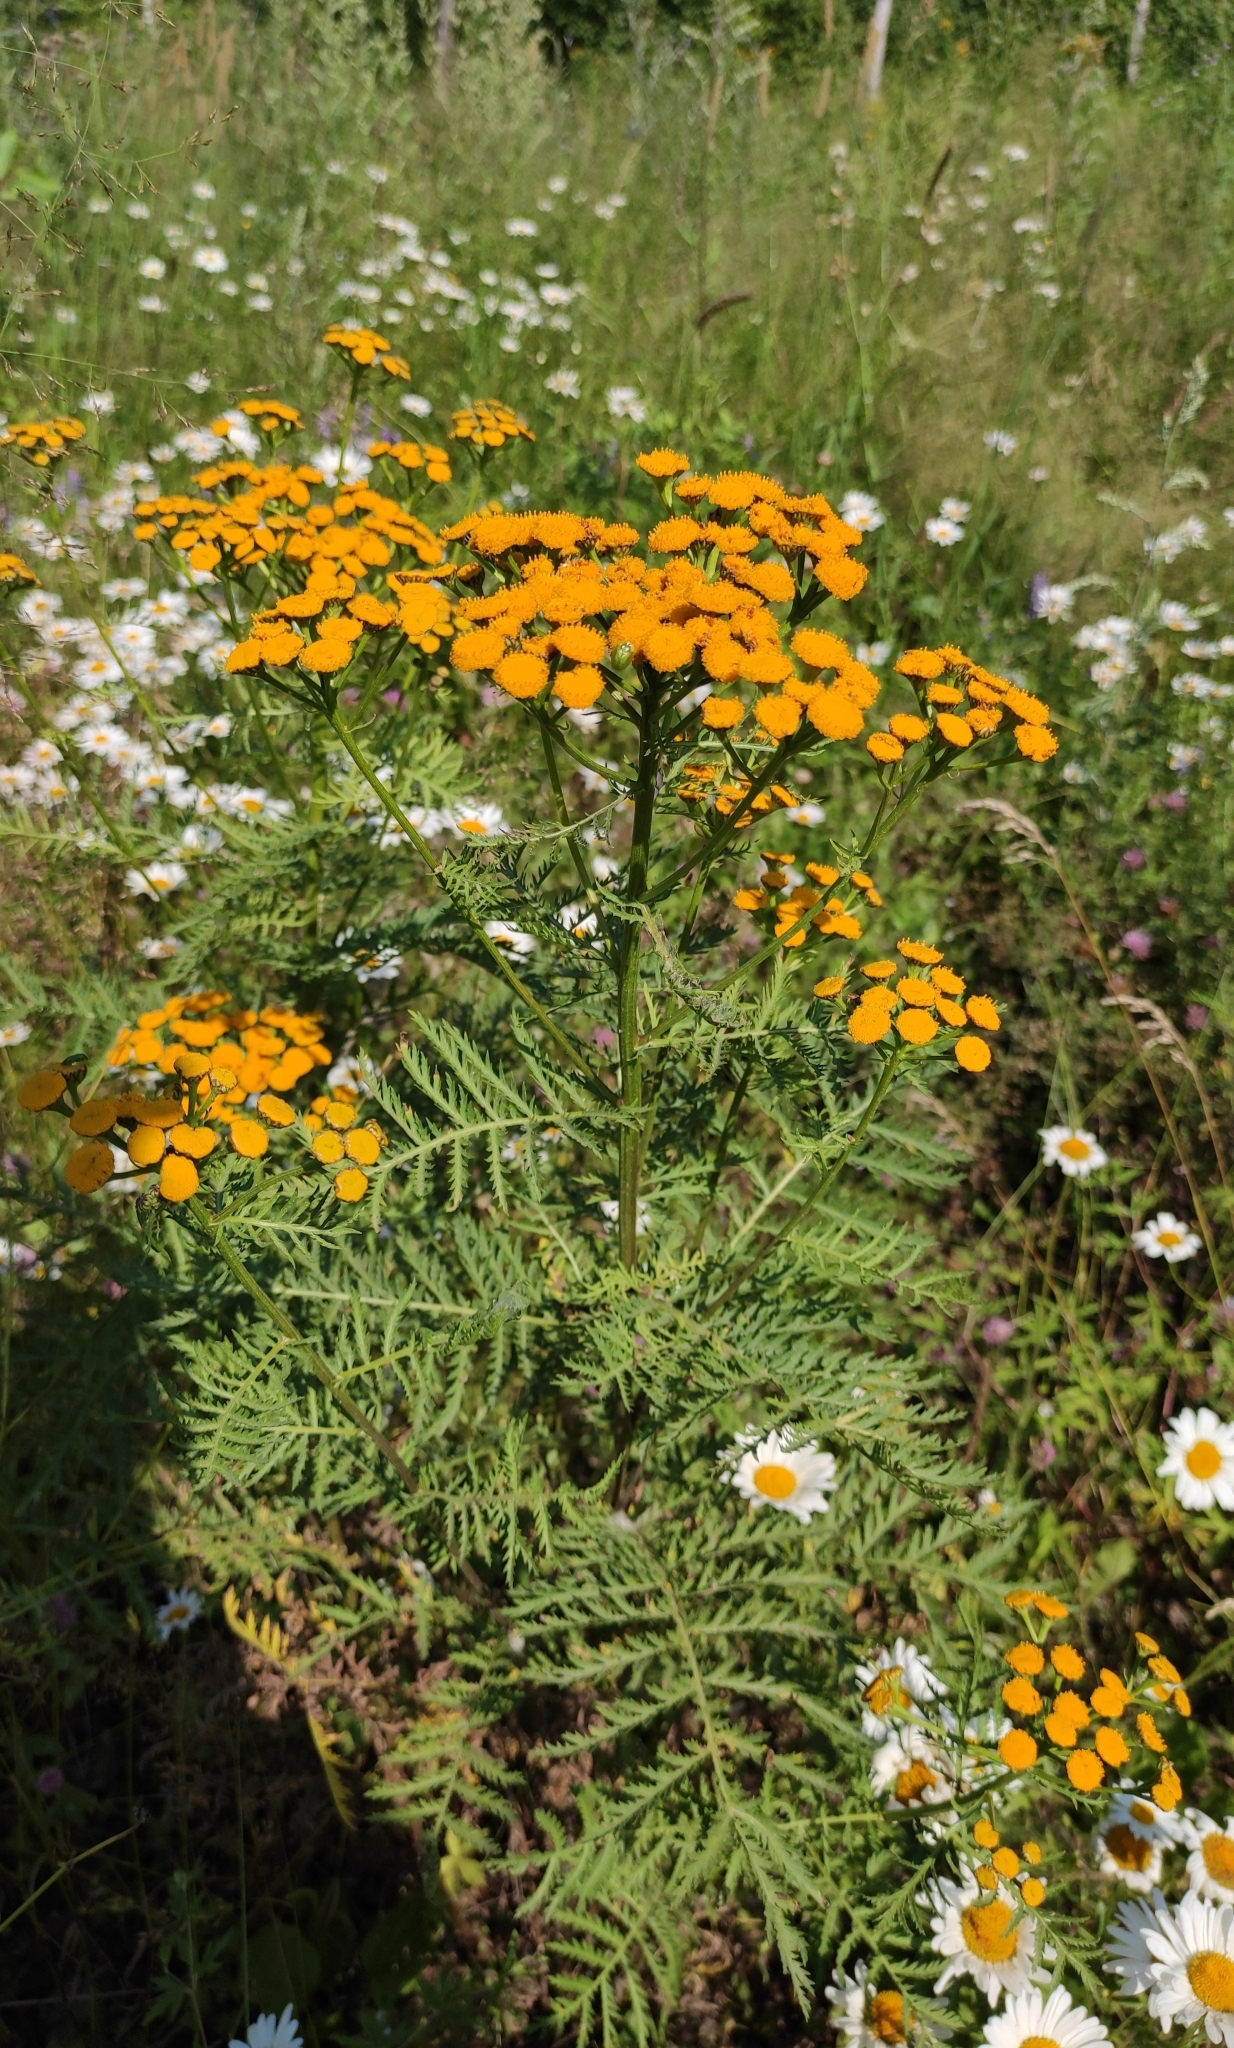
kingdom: Plantae
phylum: Tracheophyta
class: Magnoliopsida
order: Asterales
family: Asteraceae
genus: Tanacetum
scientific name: Tanacetum vulgare
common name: Common tansy
